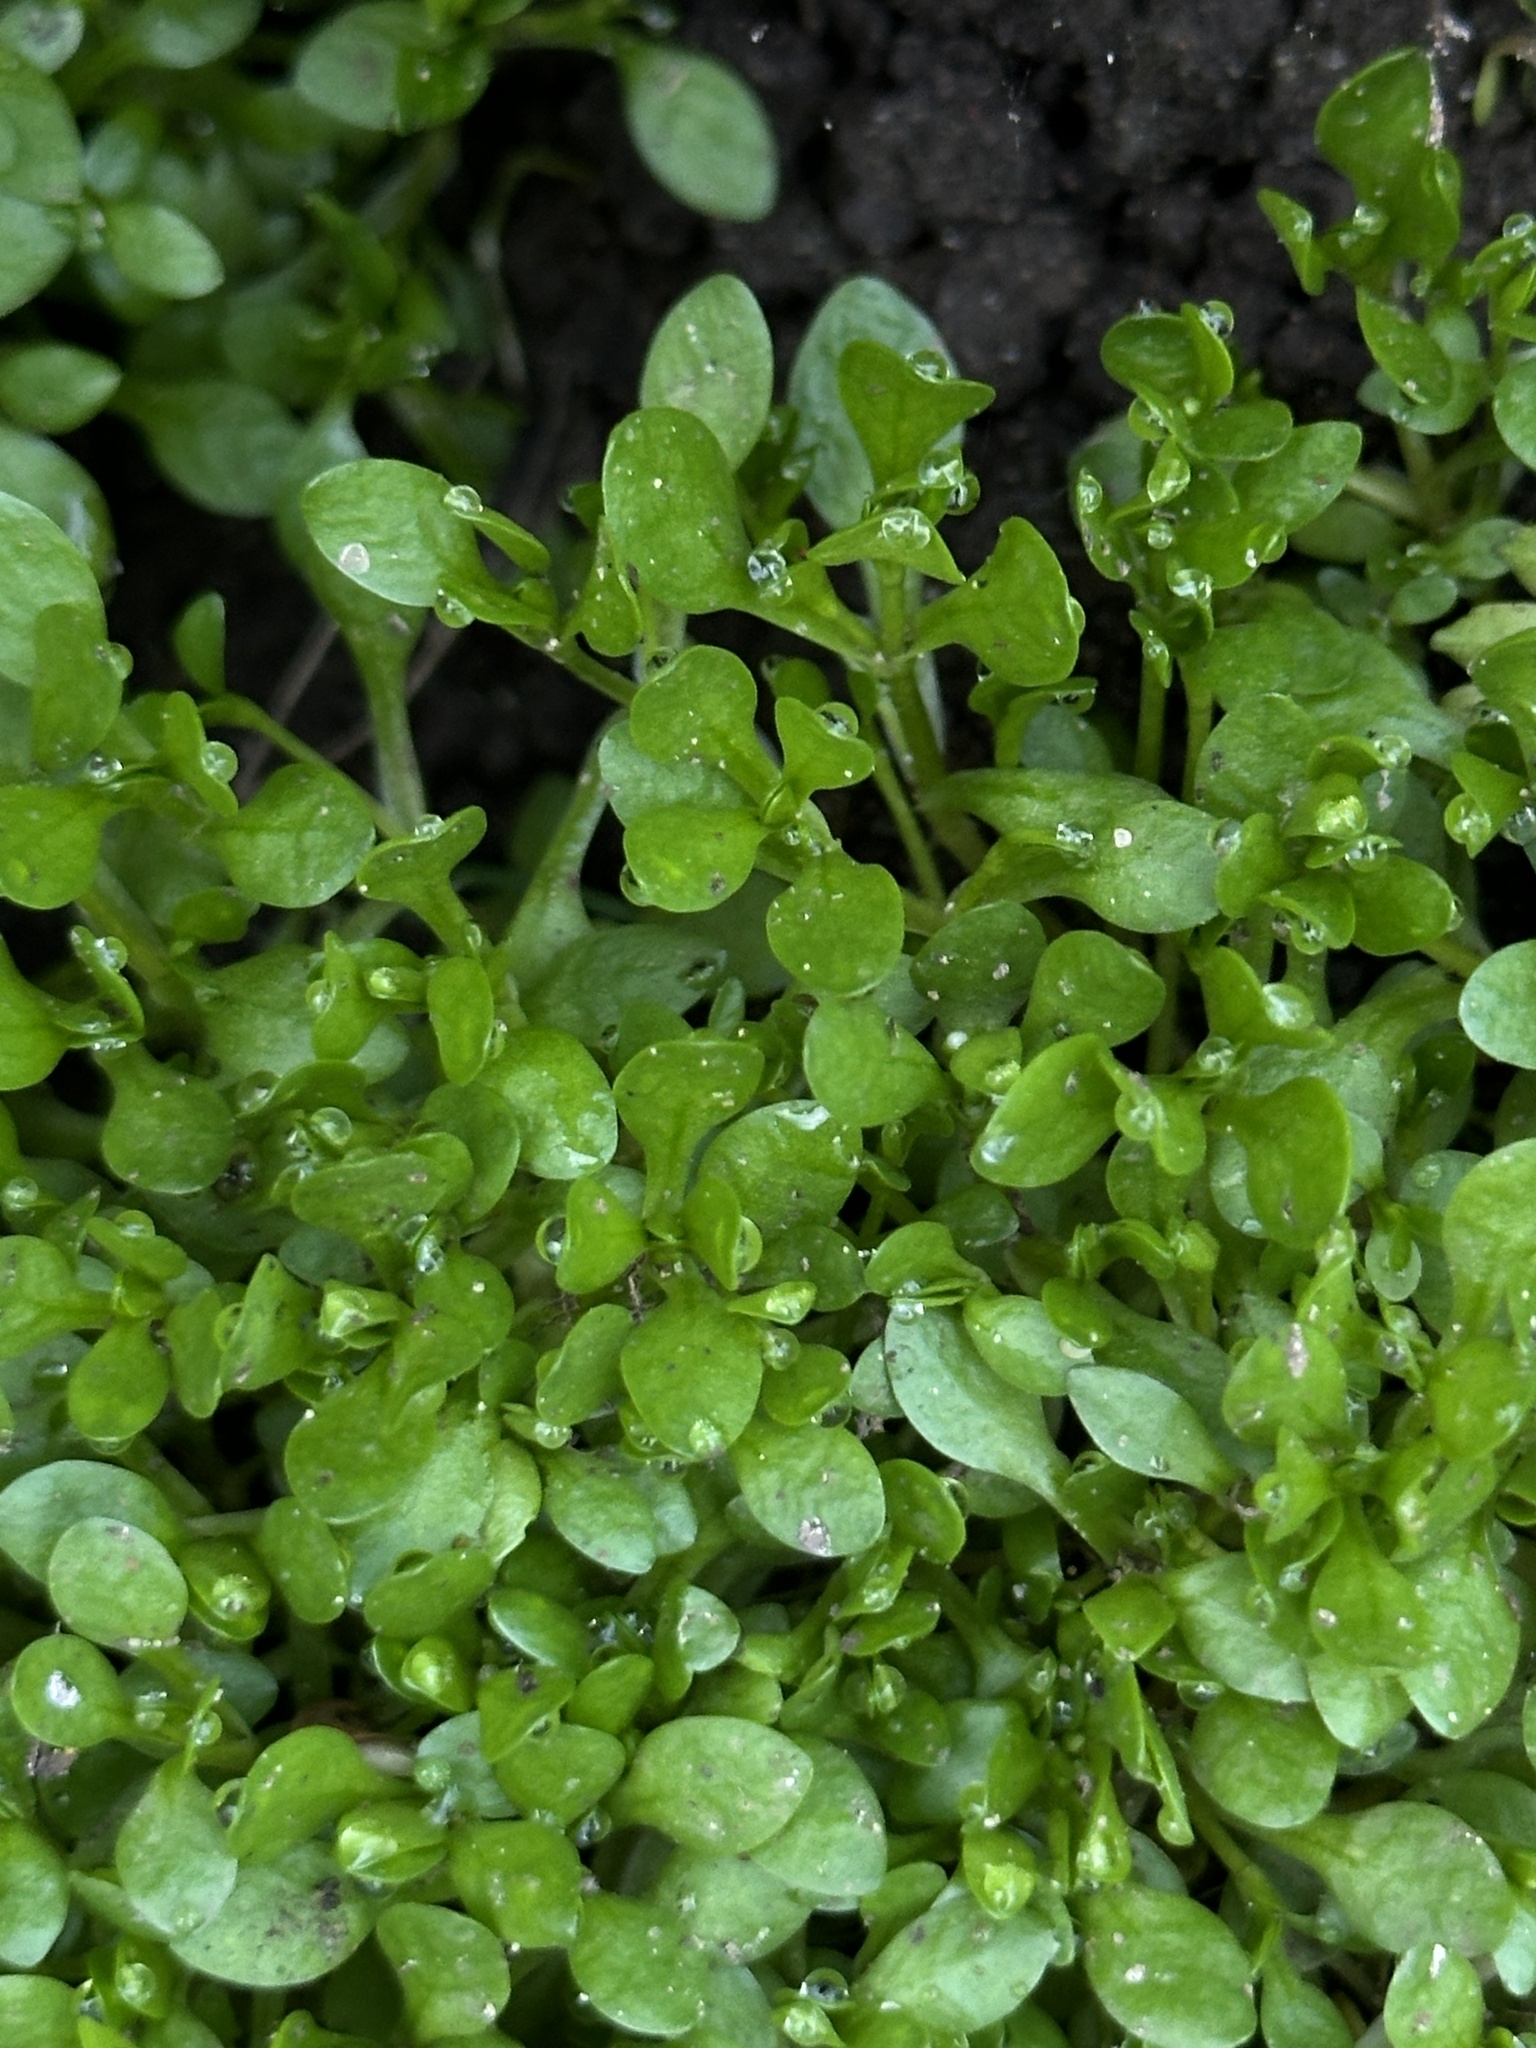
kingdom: Plantae
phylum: Tracheophyta
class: Magnoliopsida
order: Caryophyllales
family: Montiaceae
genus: Montia
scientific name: Montia fontana
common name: Blinks
